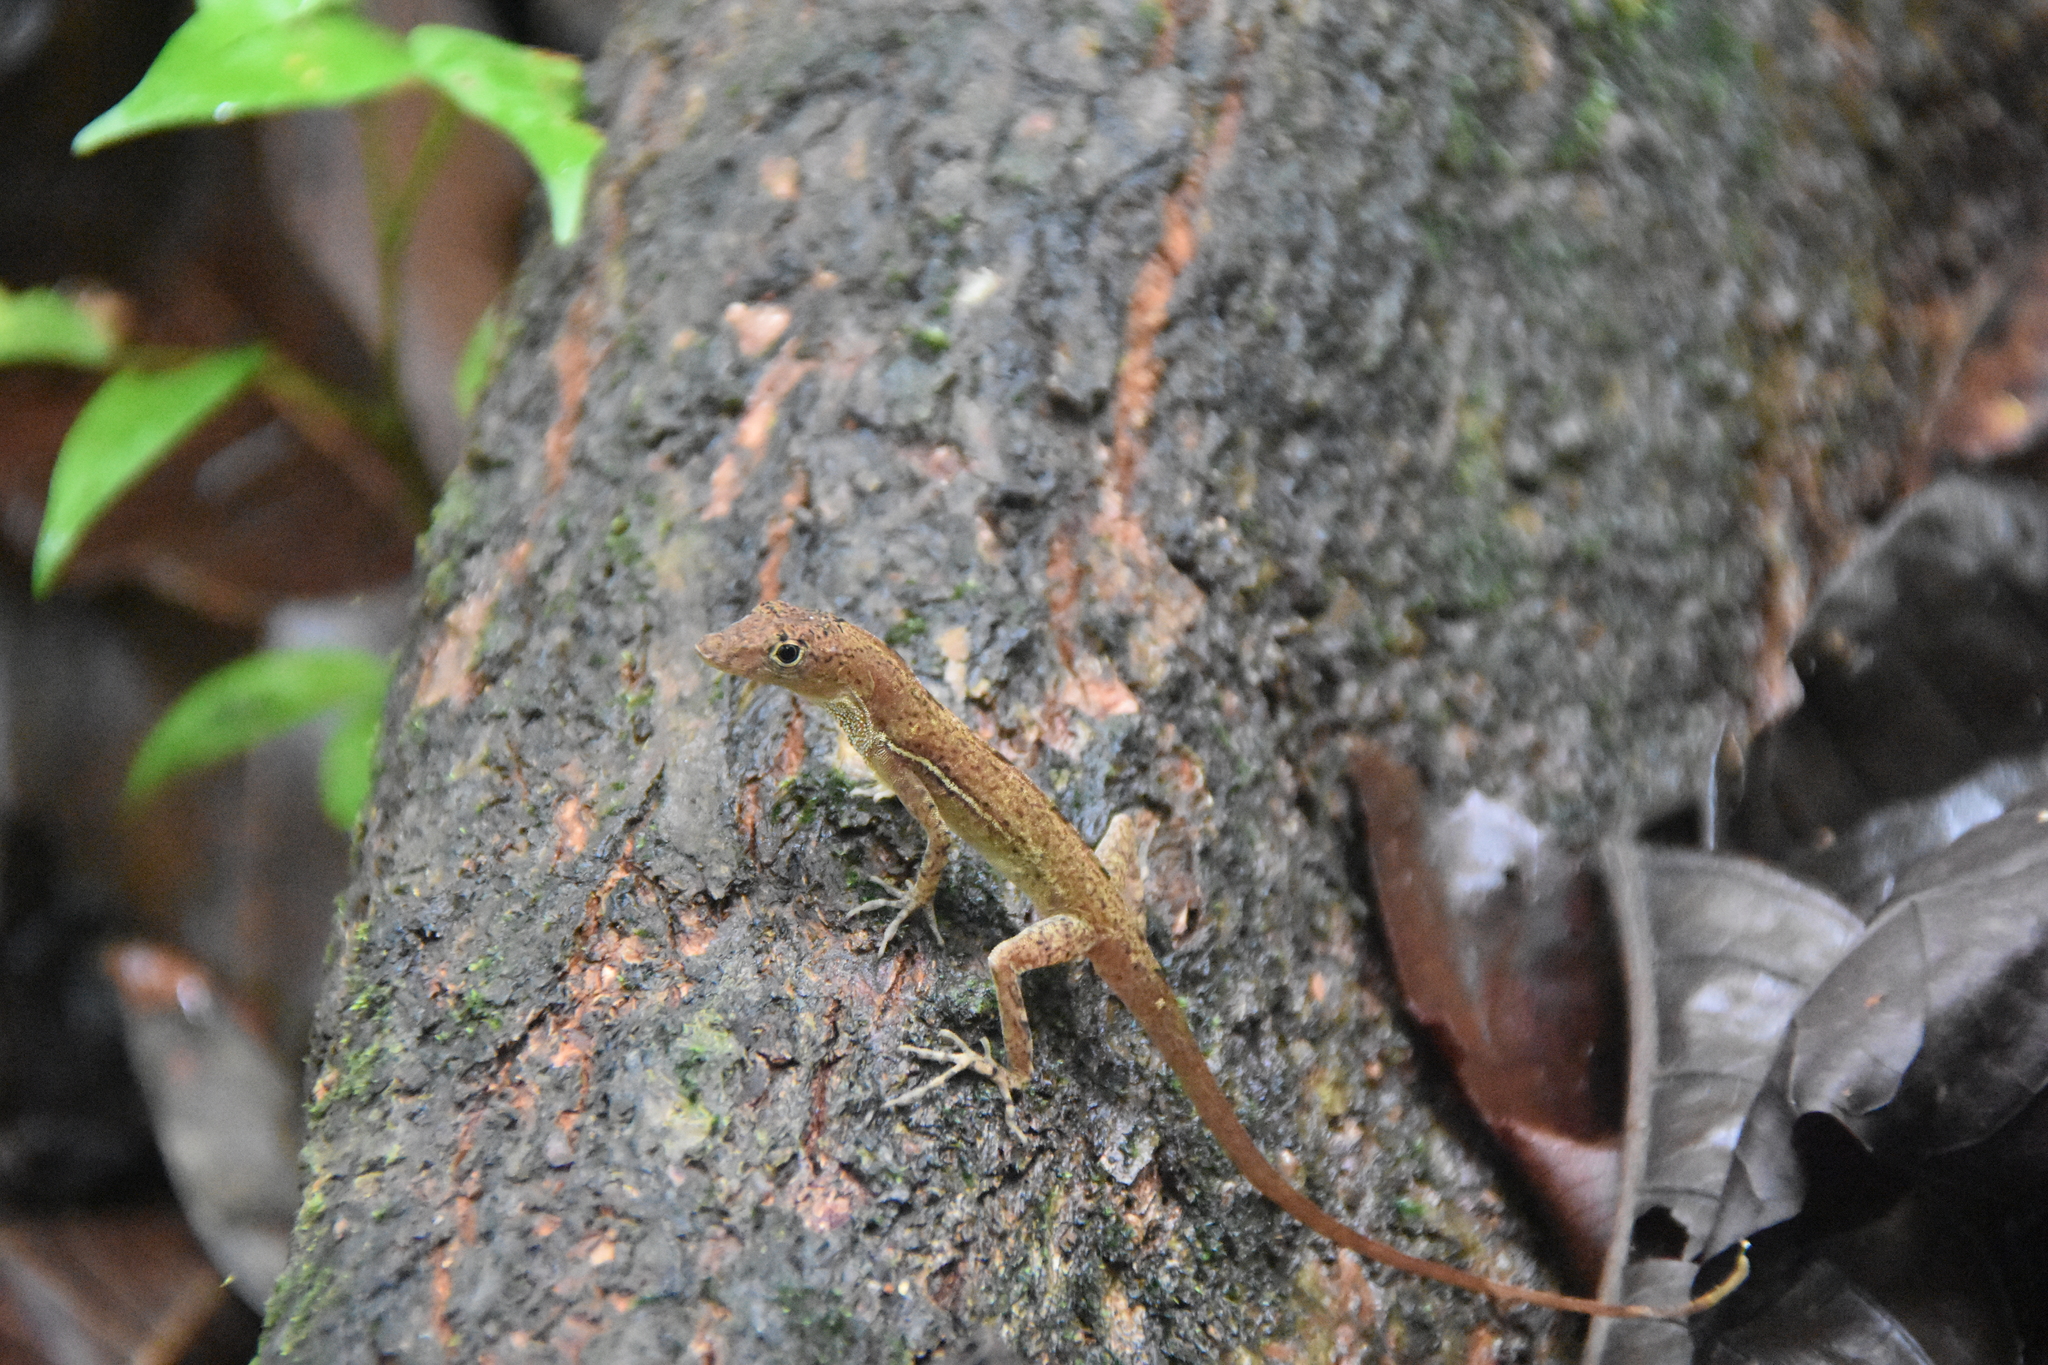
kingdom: Animalia
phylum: Chordata
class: Squamata
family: Dactyloidae
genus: Anolis
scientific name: Anolis osa
